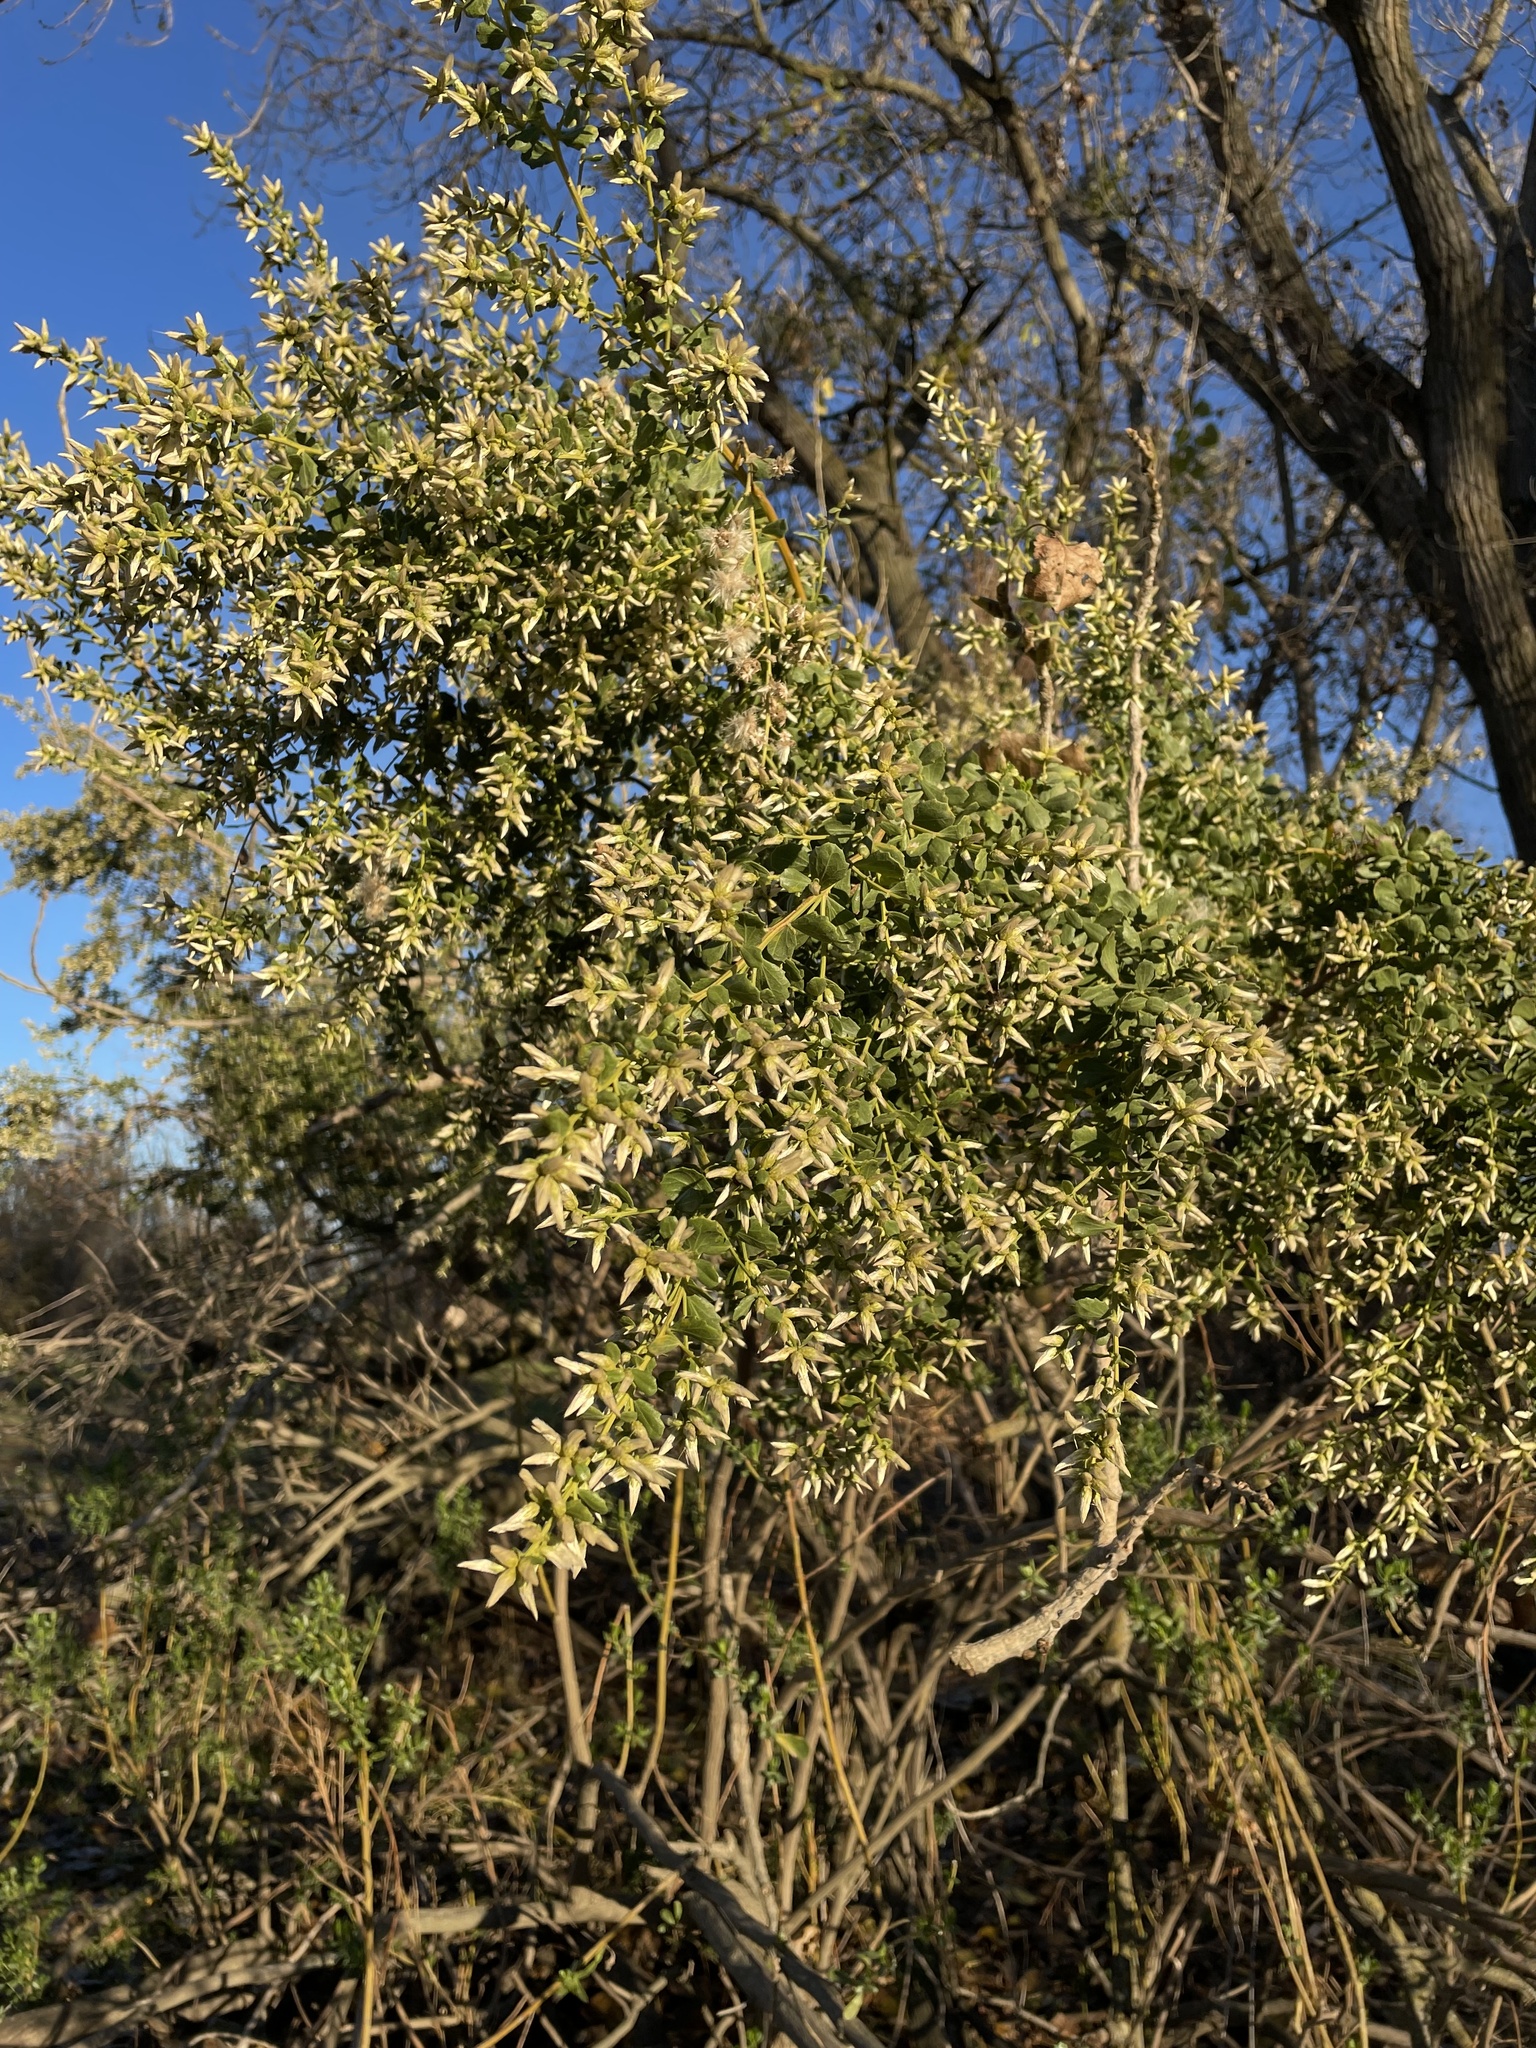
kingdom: Plantae
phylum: Tracheophyta
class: Magnoliopsida
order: Asterales
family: Asteraceae
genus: Baccharis
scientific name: Baccharis pilularis
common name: Coyotebrush
